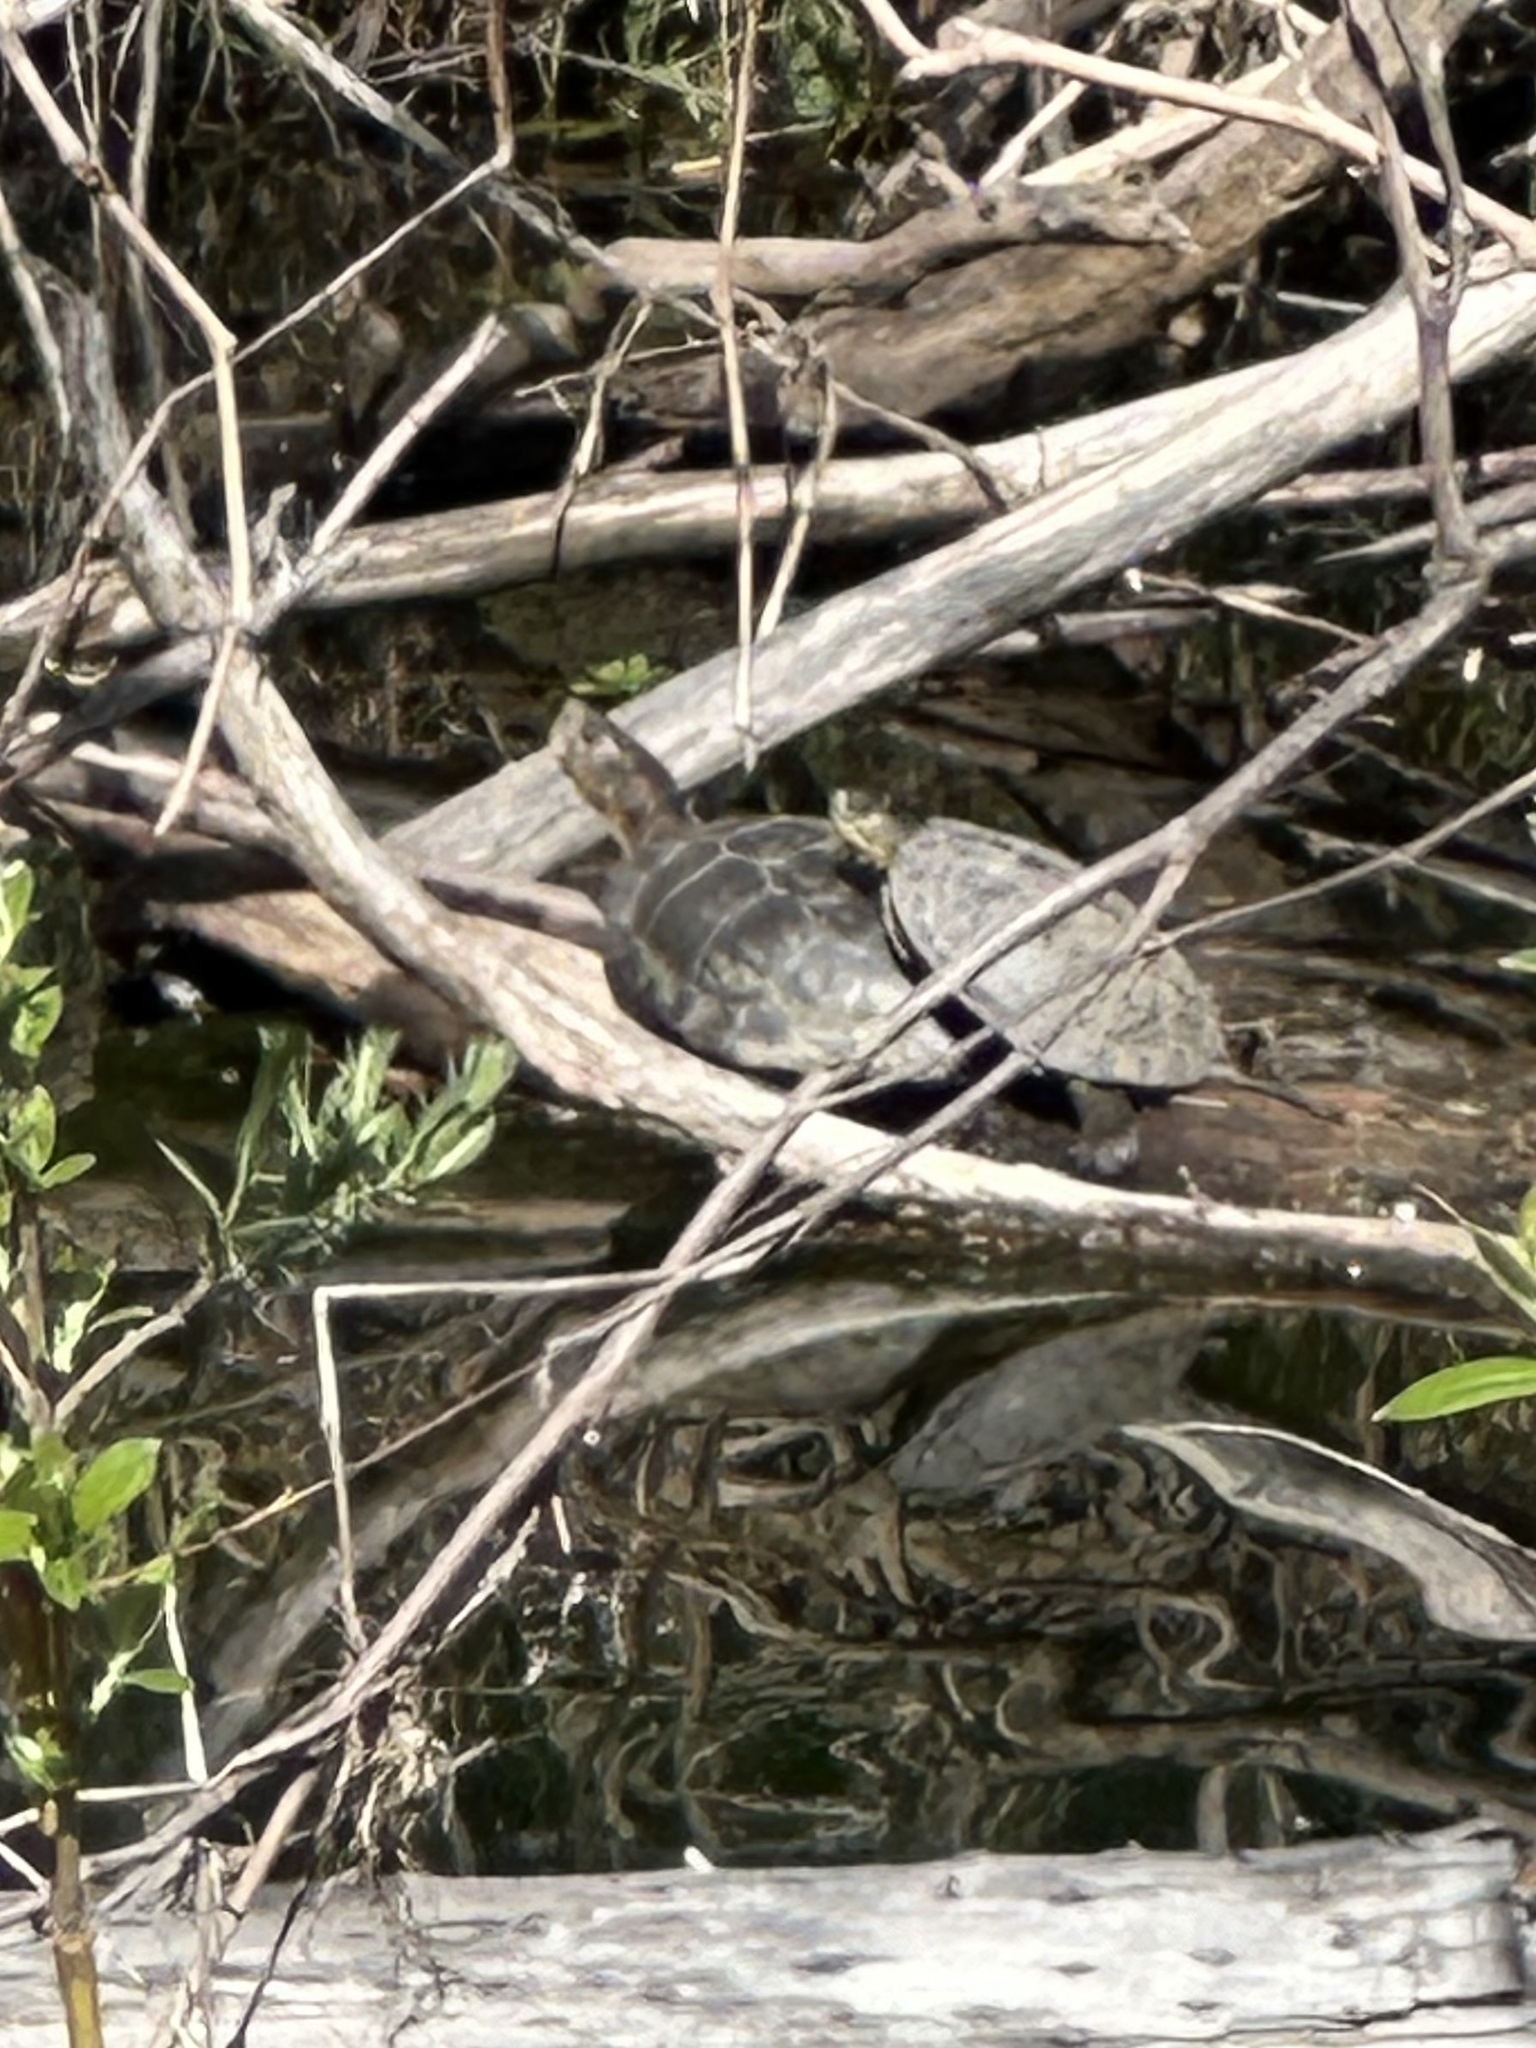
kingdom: Animalia
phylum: Chordata
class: Testudines
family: Emydidae
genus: Actinemys
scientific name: Actinemys marmorata
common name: Western pond turtle
